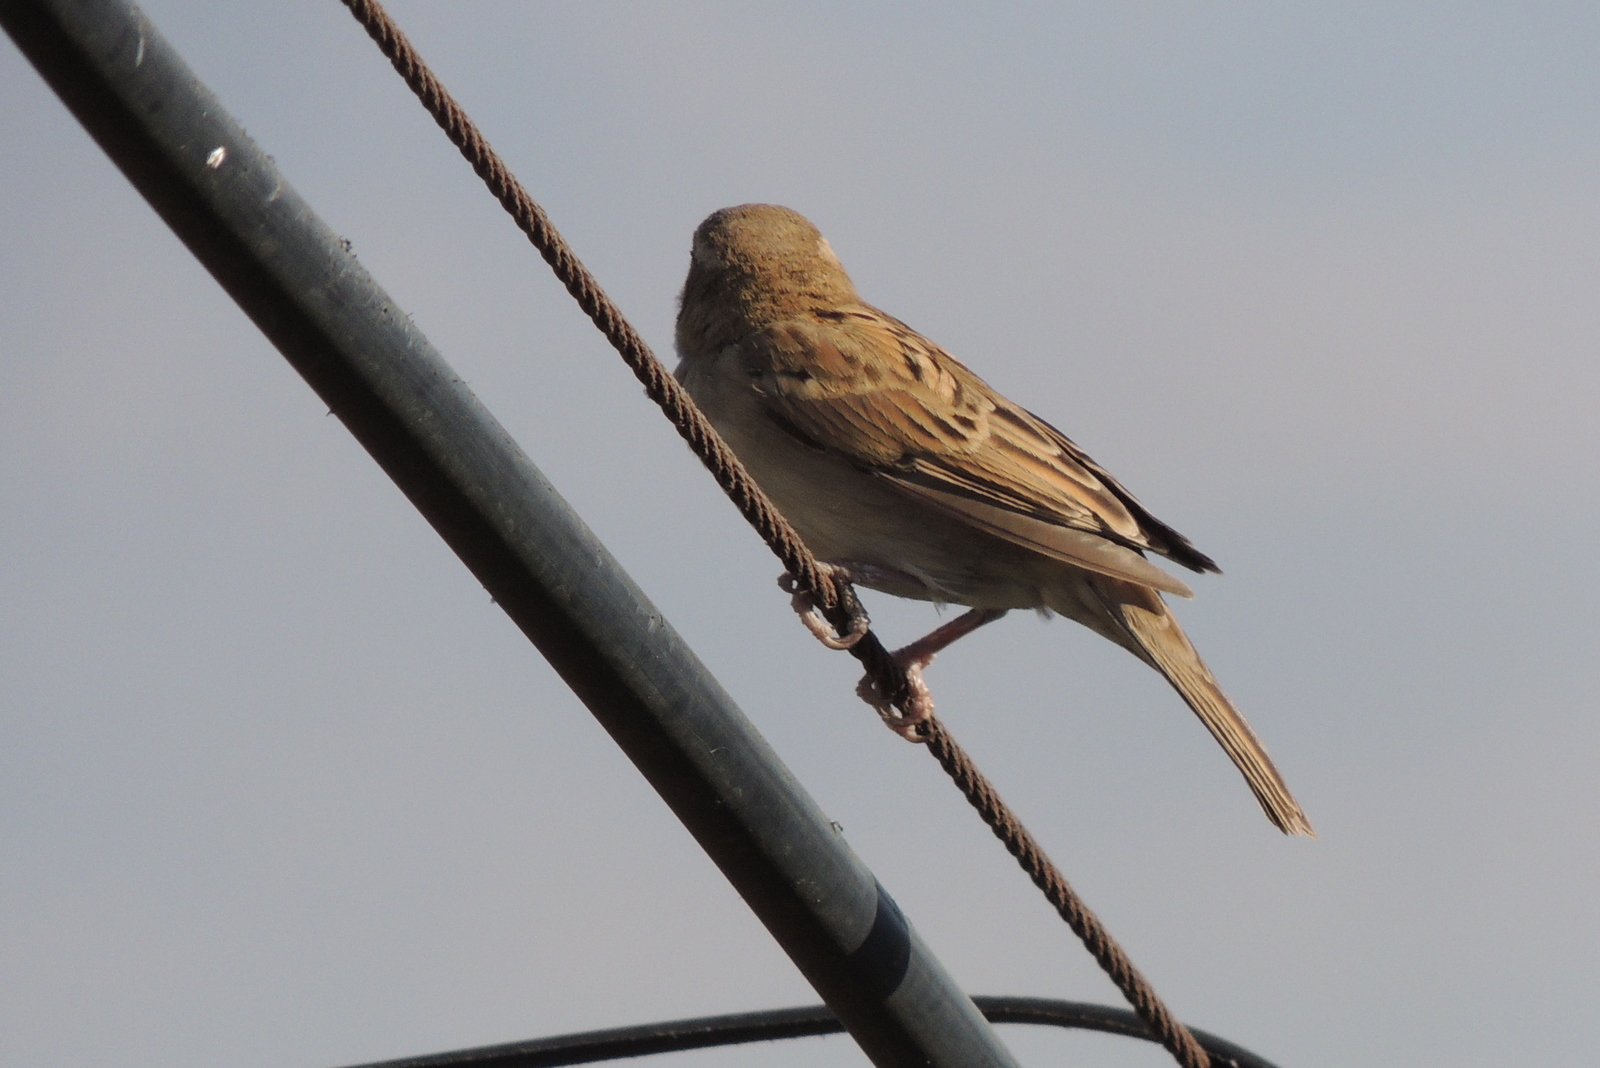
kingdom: Animalia
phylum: Chordata
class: Aves
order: Passeriformes
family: Passeridae
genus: Passer
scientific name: Passer domesticus
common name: House sparrow
